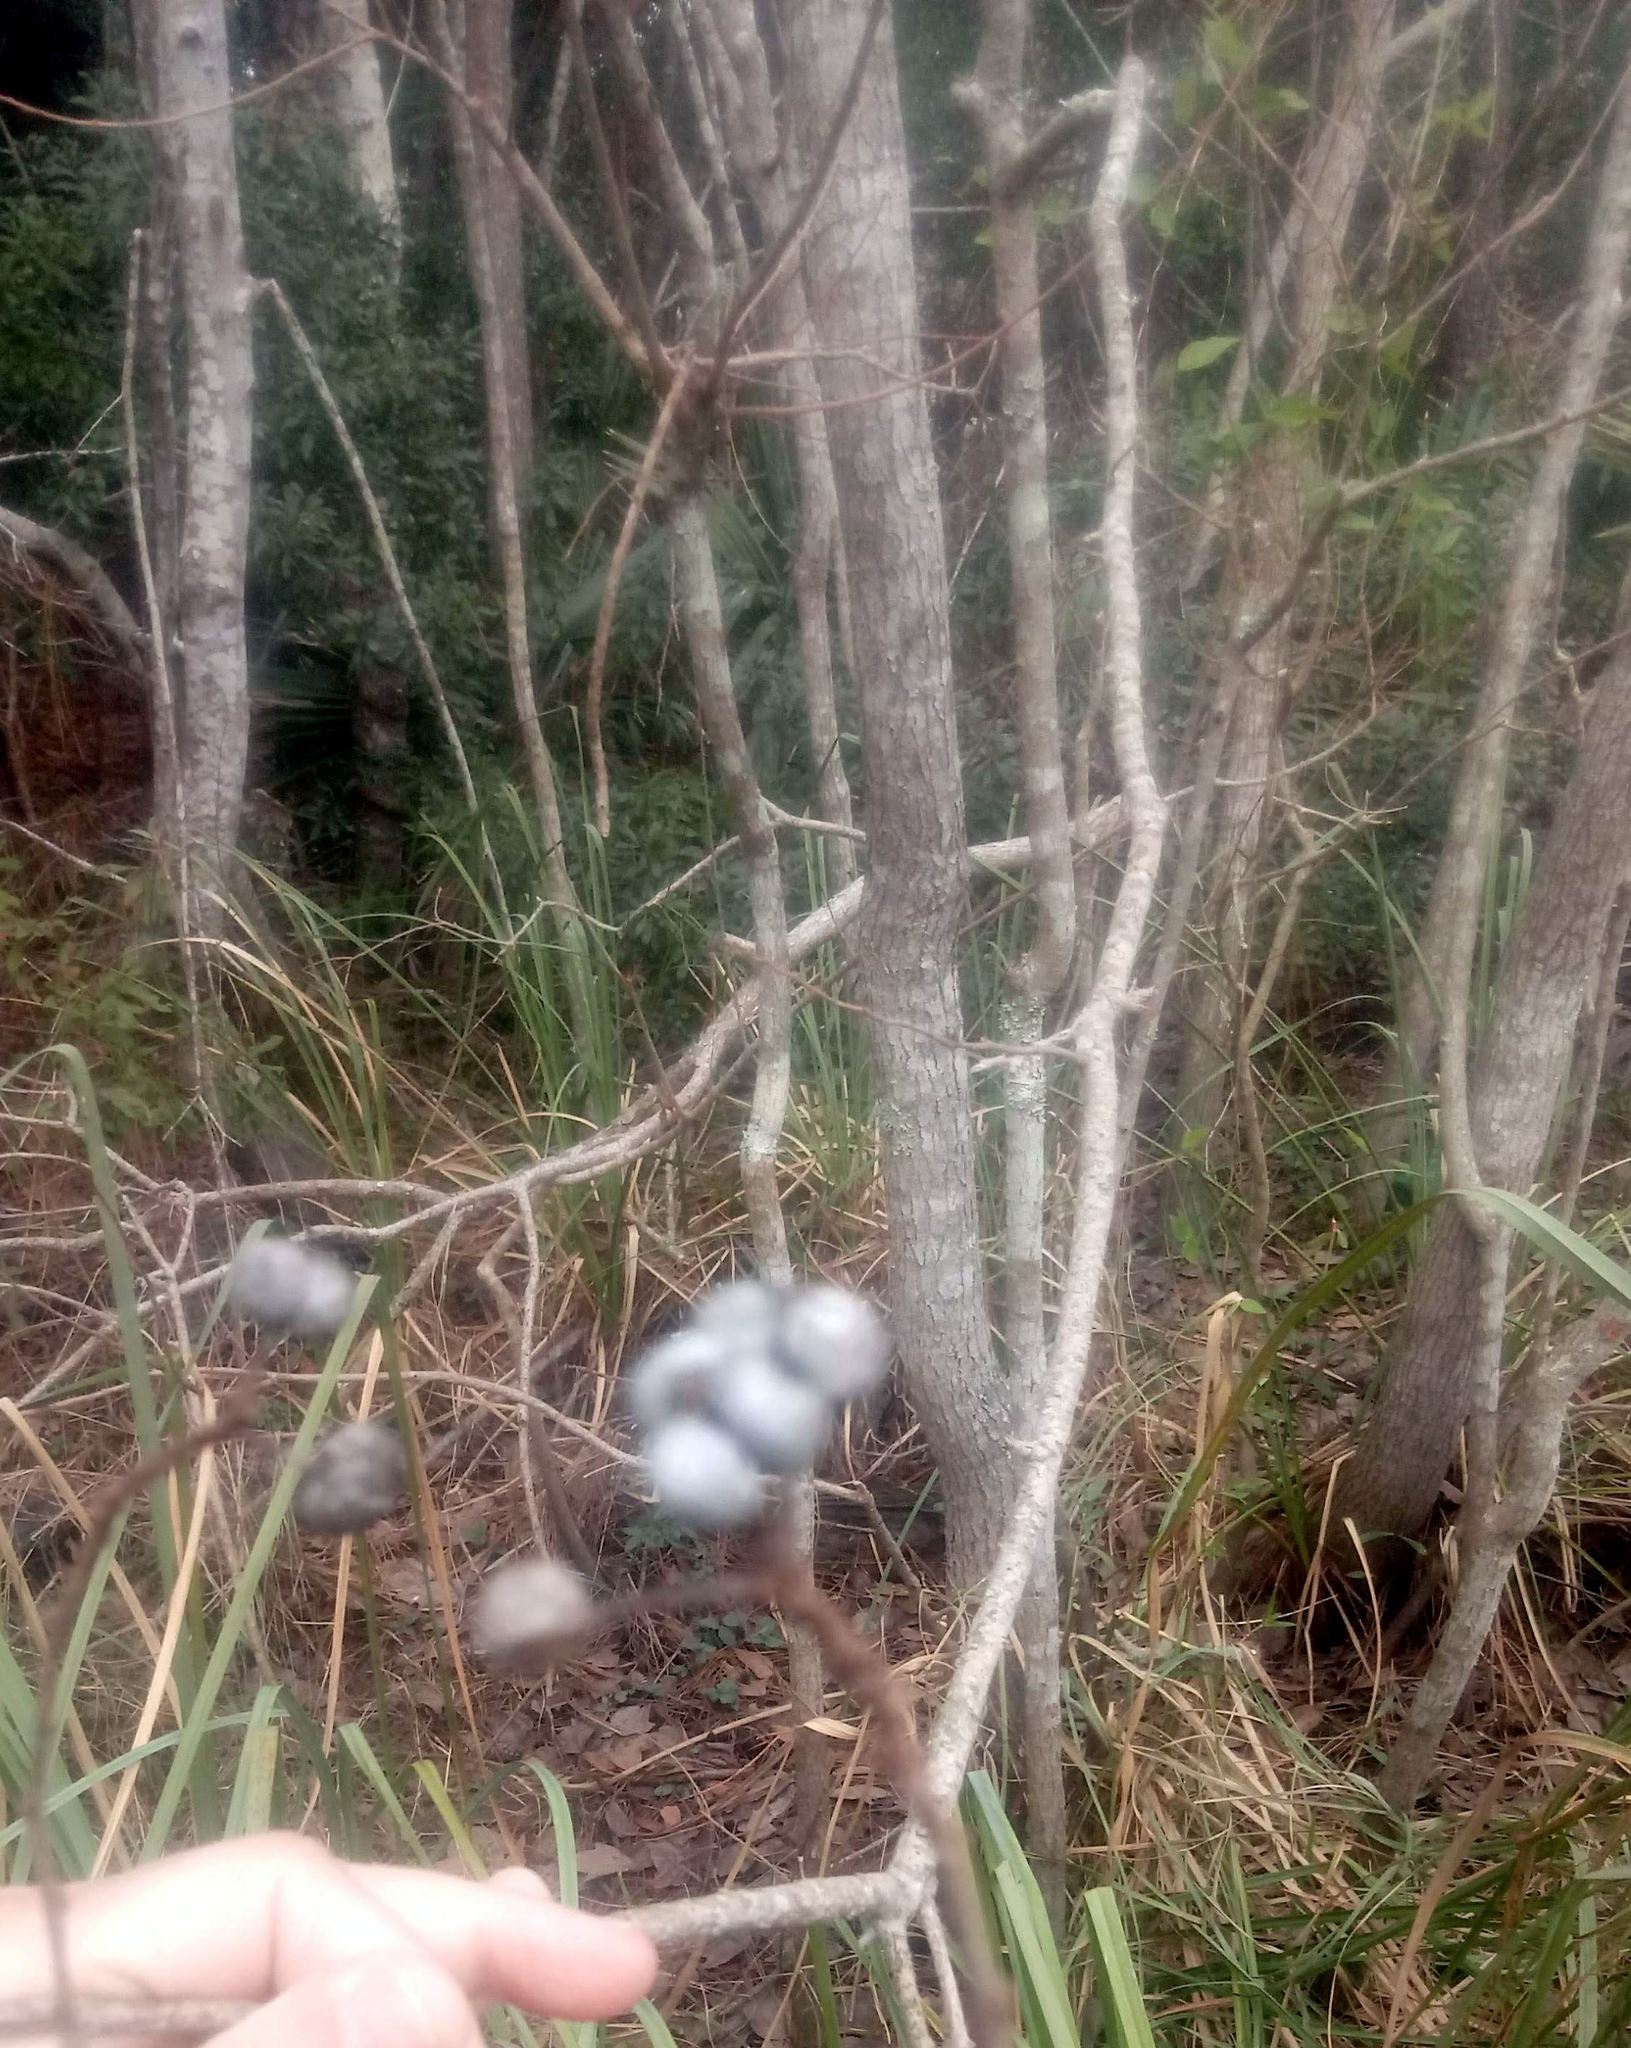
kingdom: Plantae
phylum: Tracheophyta
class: Magnoliopsida
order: Malpighiales
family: Euphorbiaceae
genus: Triadica
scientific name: Triadica sebifera
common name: Chinese tallow
